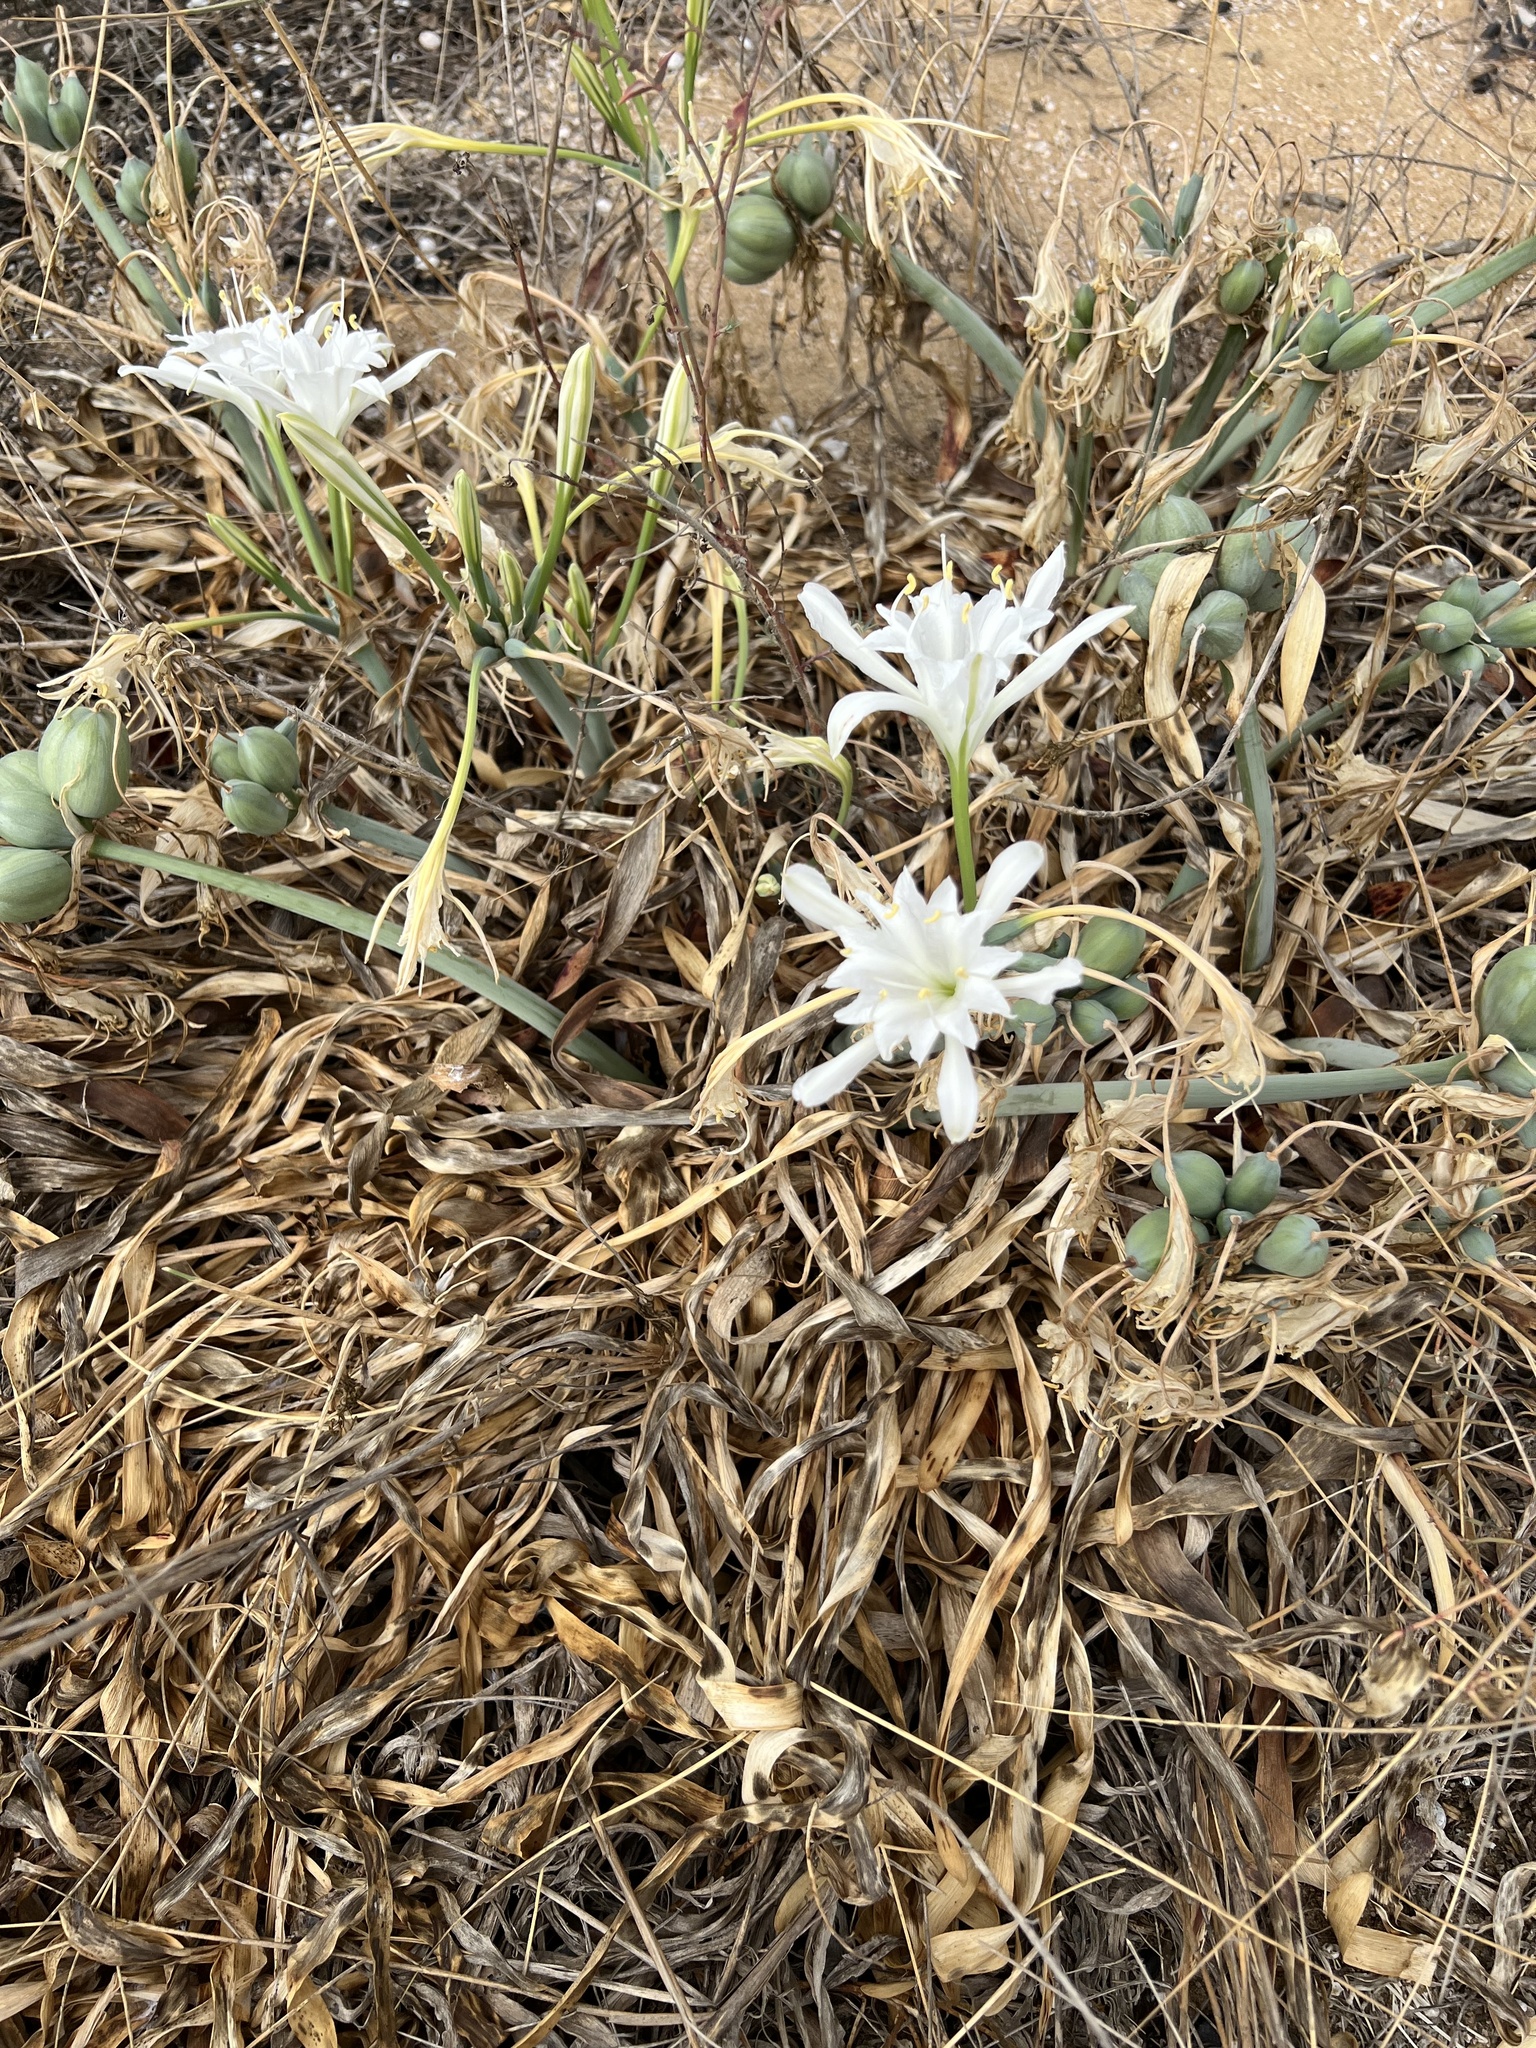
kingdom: Plantae
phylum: Tracheophyta
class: Liliopsida
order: Asparagales
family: Amaryllidaceae
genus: Pancratium
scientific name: Pancratium maritimum
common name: Sea-daffodil
